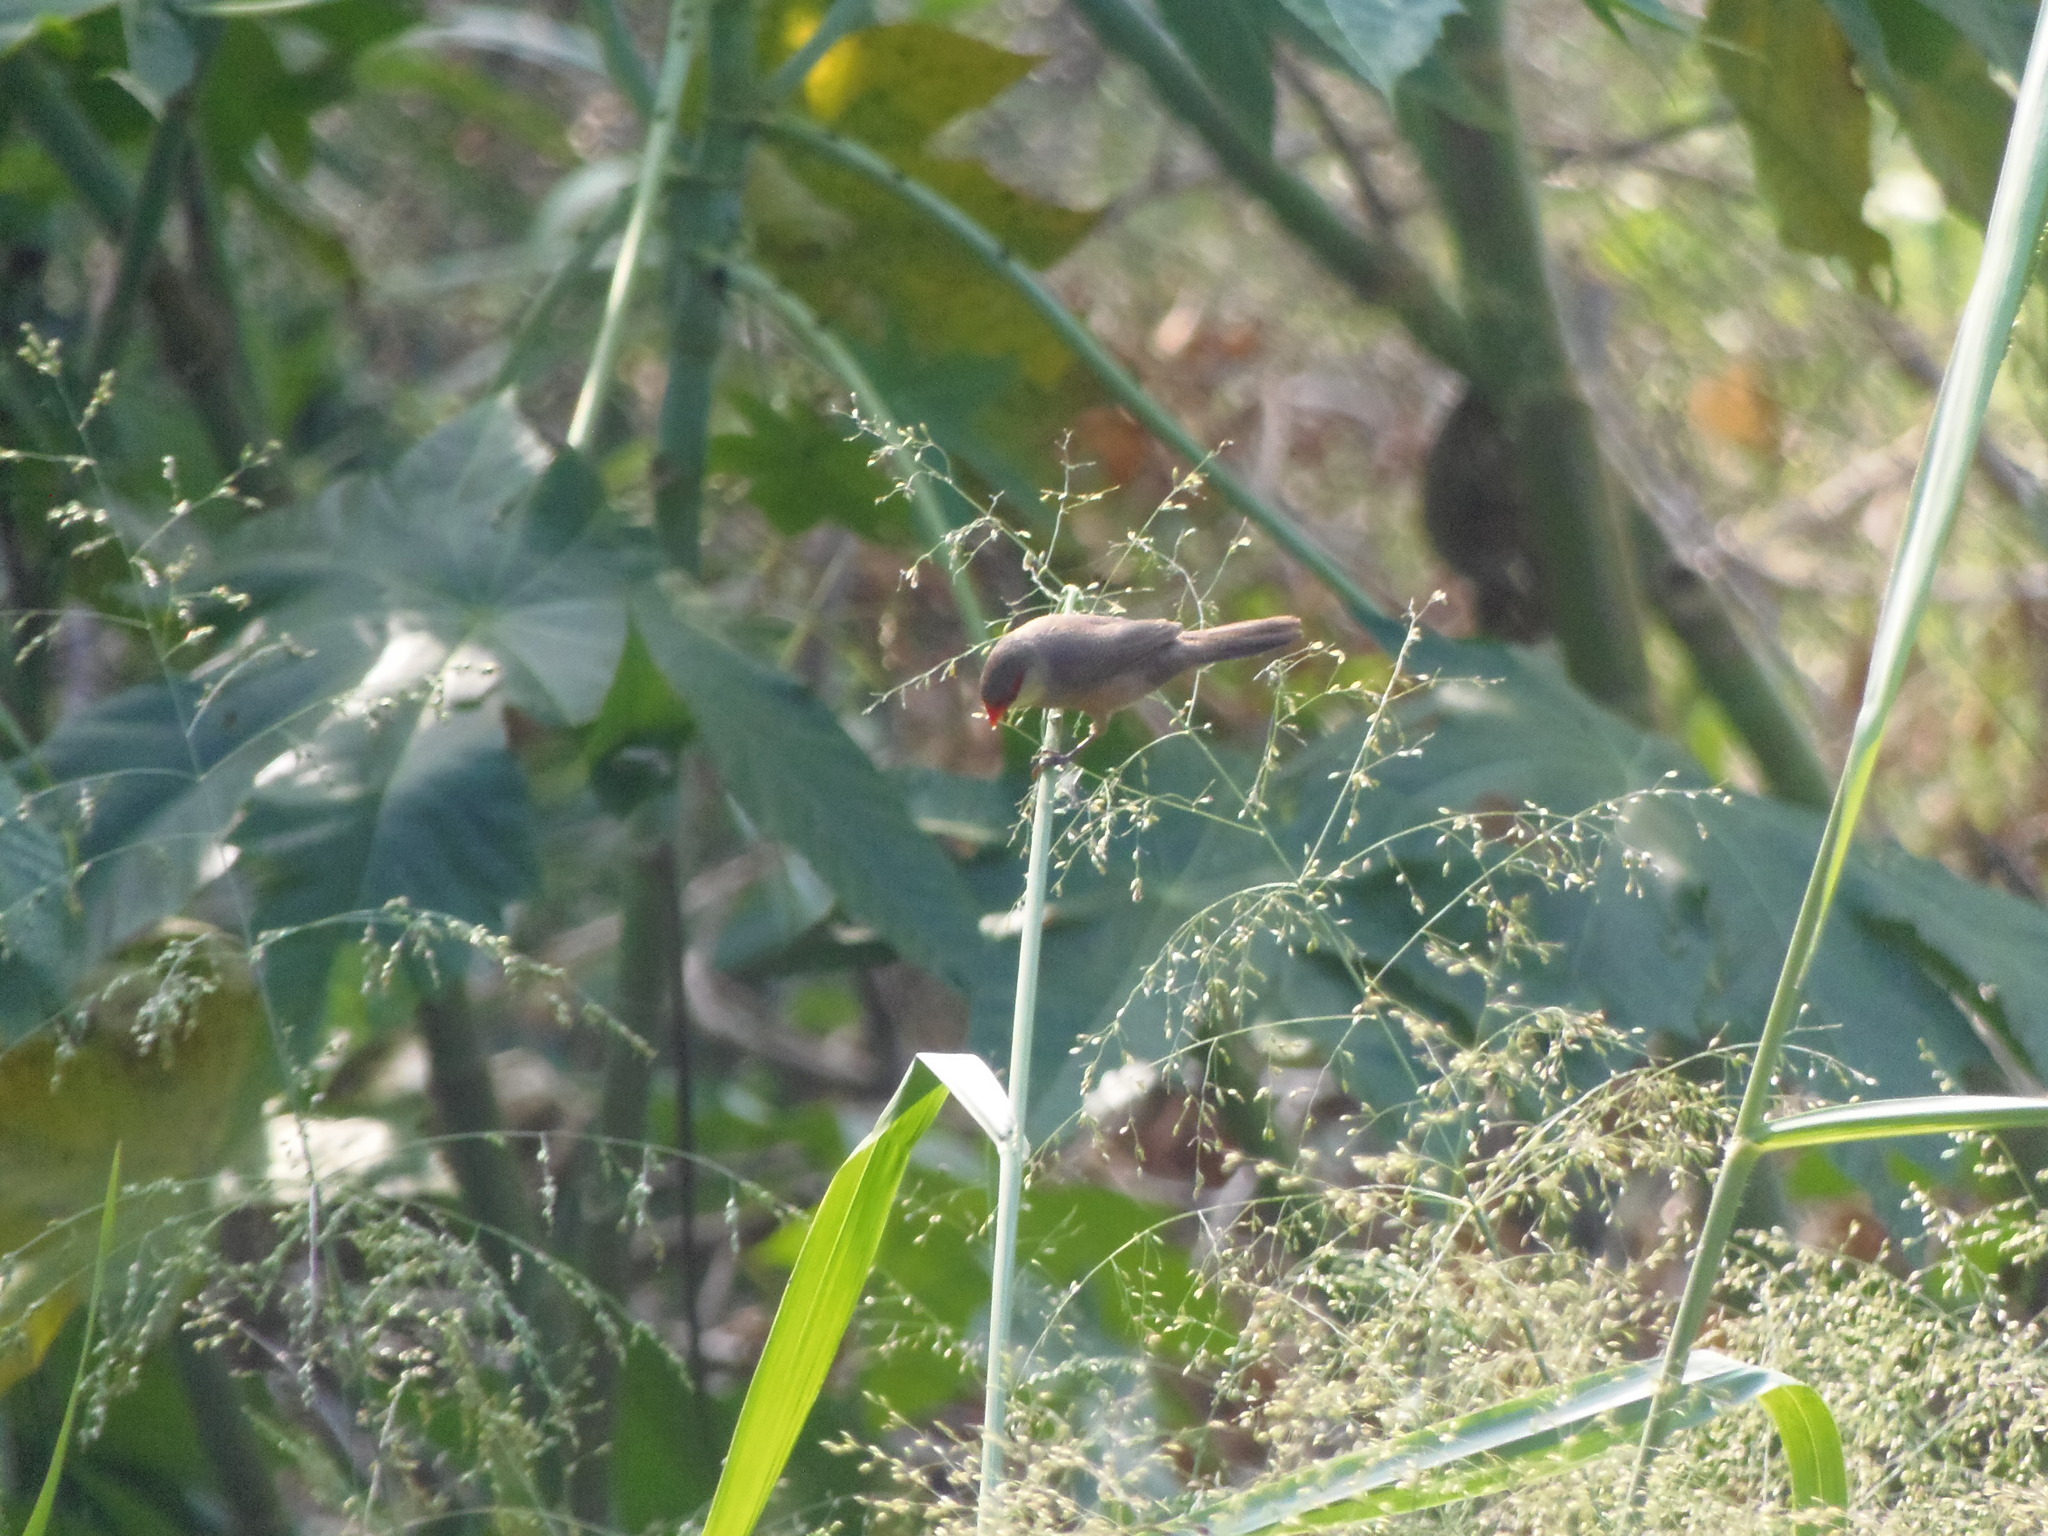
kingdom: Animalia
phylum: Chordata
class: Aves
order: Passeriformes
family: Estrildidae
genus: Estrilda
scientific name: Estrilda astrild
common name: Common waxbill
